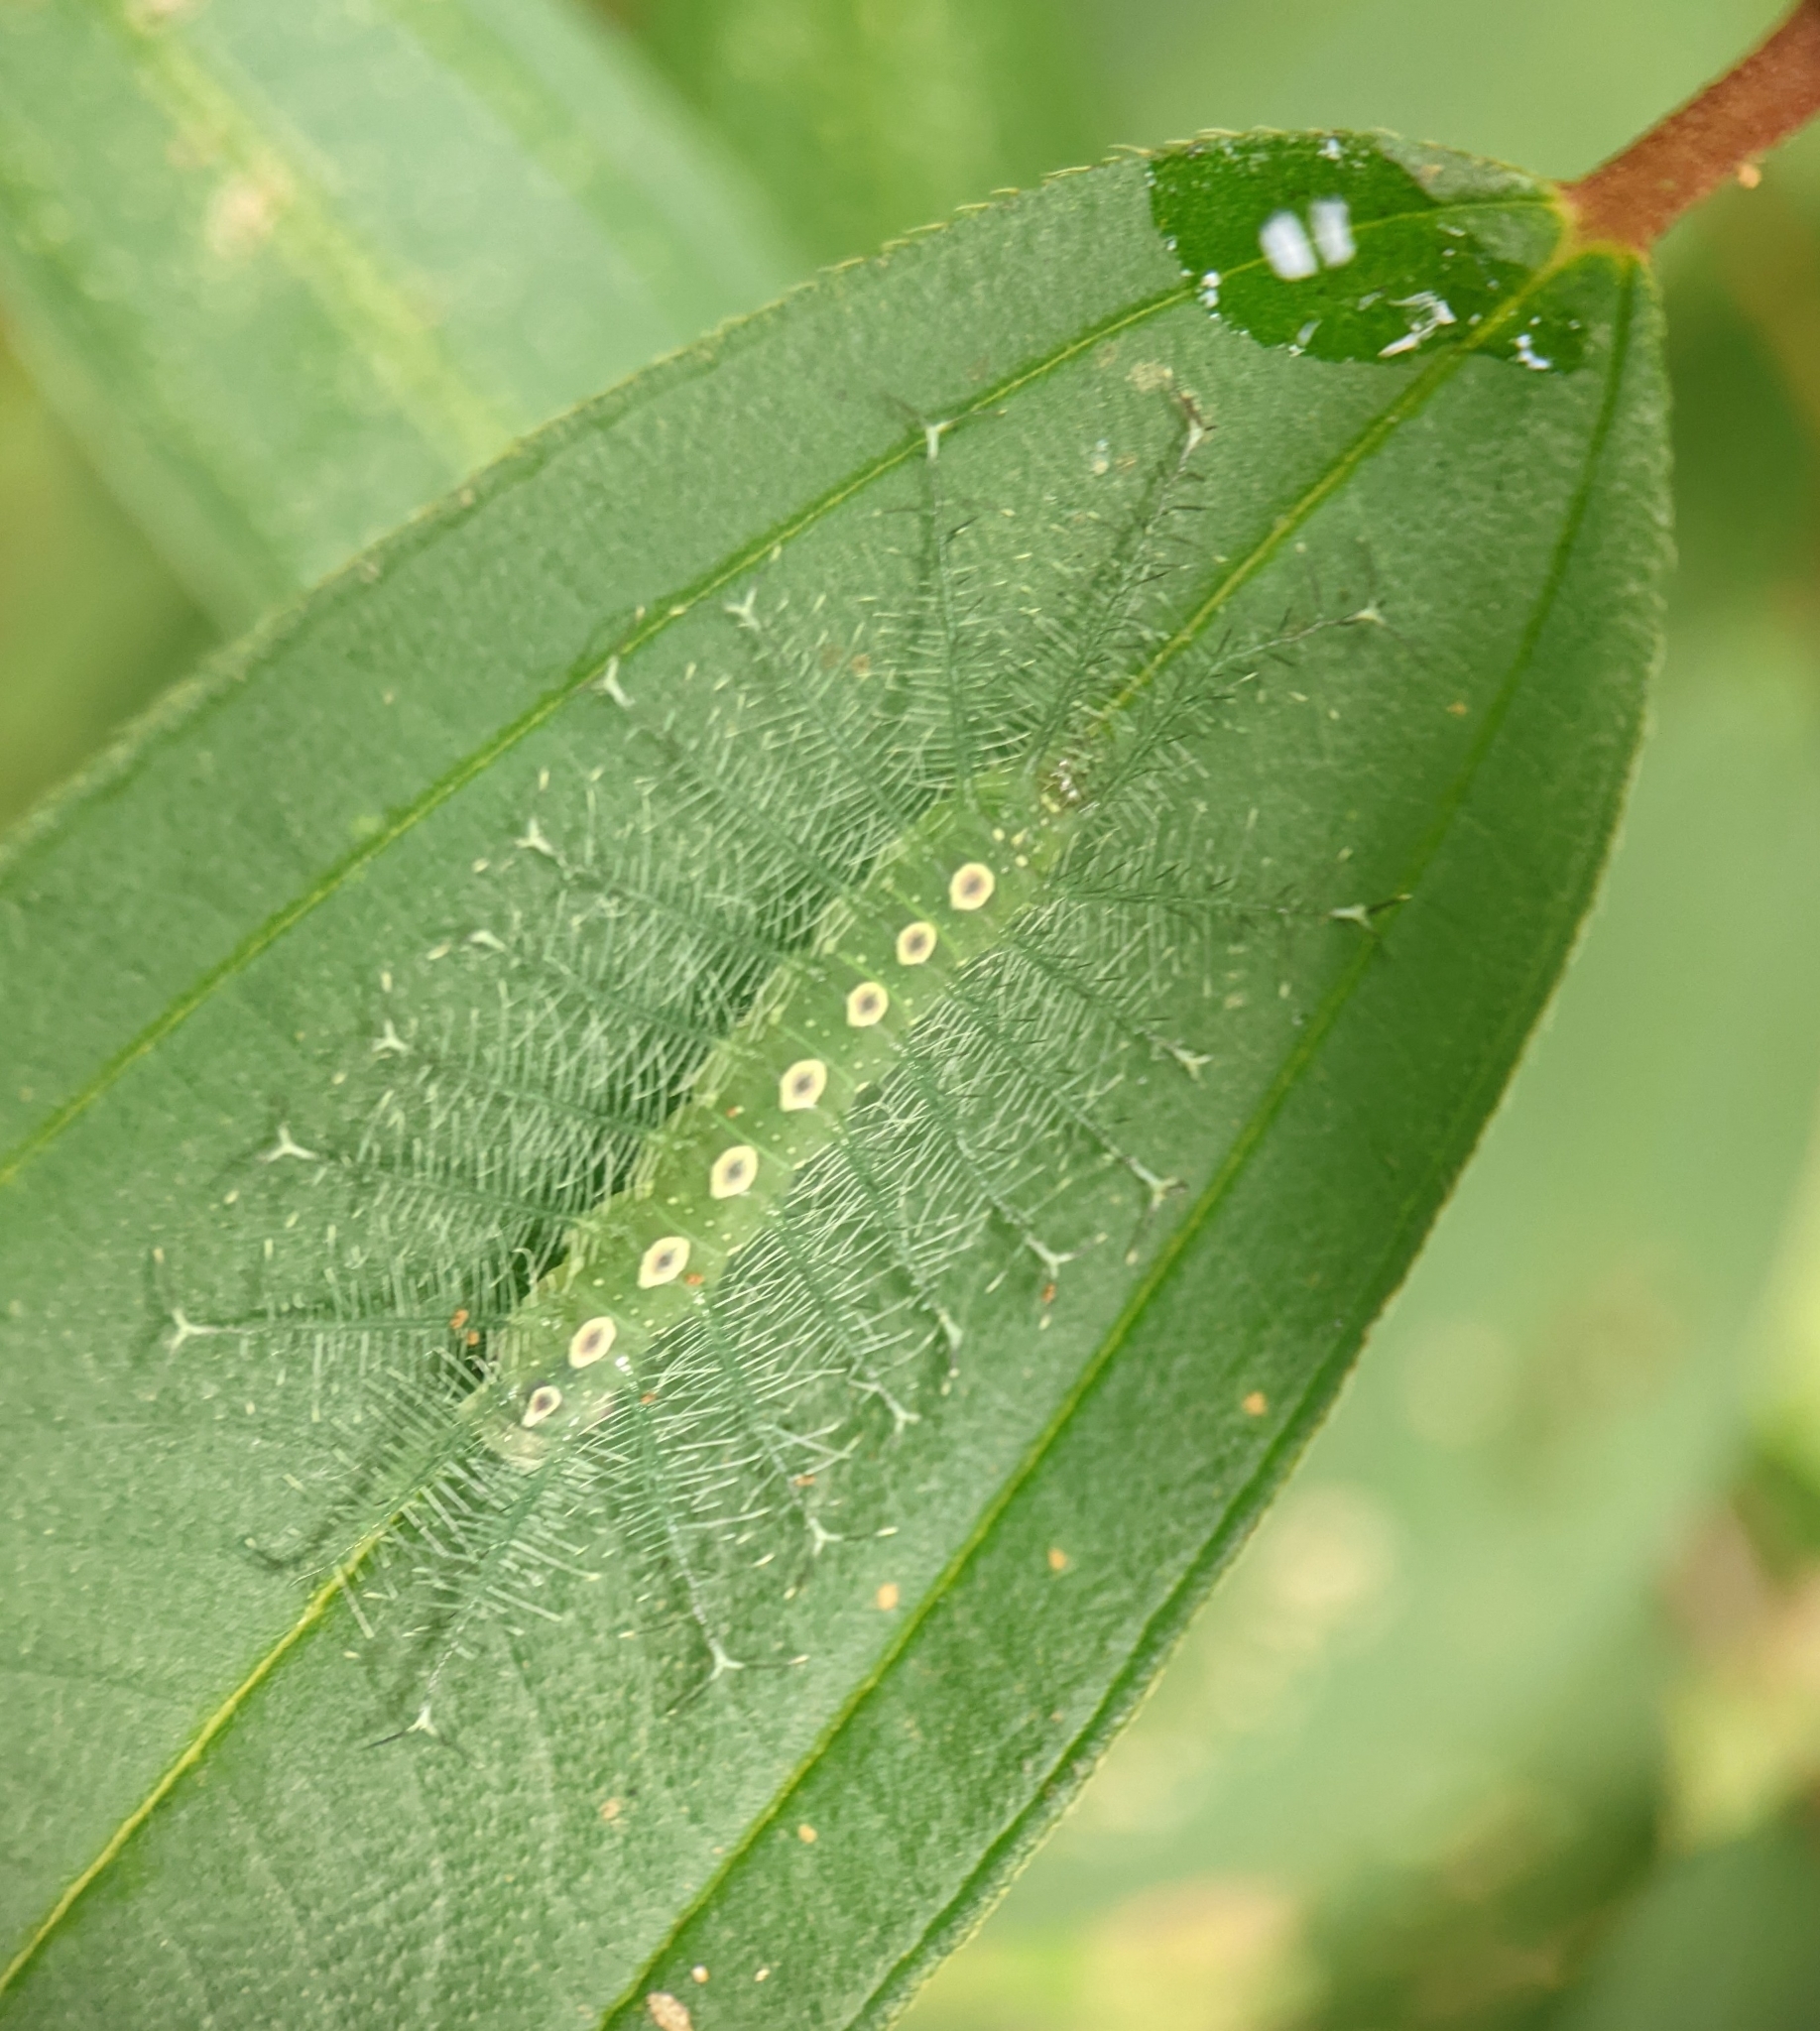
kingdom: Animalia
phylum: Arthropoda
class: Insecta
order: Lepidoptera
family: Nymphalidae
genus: Tanaecia
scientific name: Tanaecia iapis
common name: Horsfield's baron
